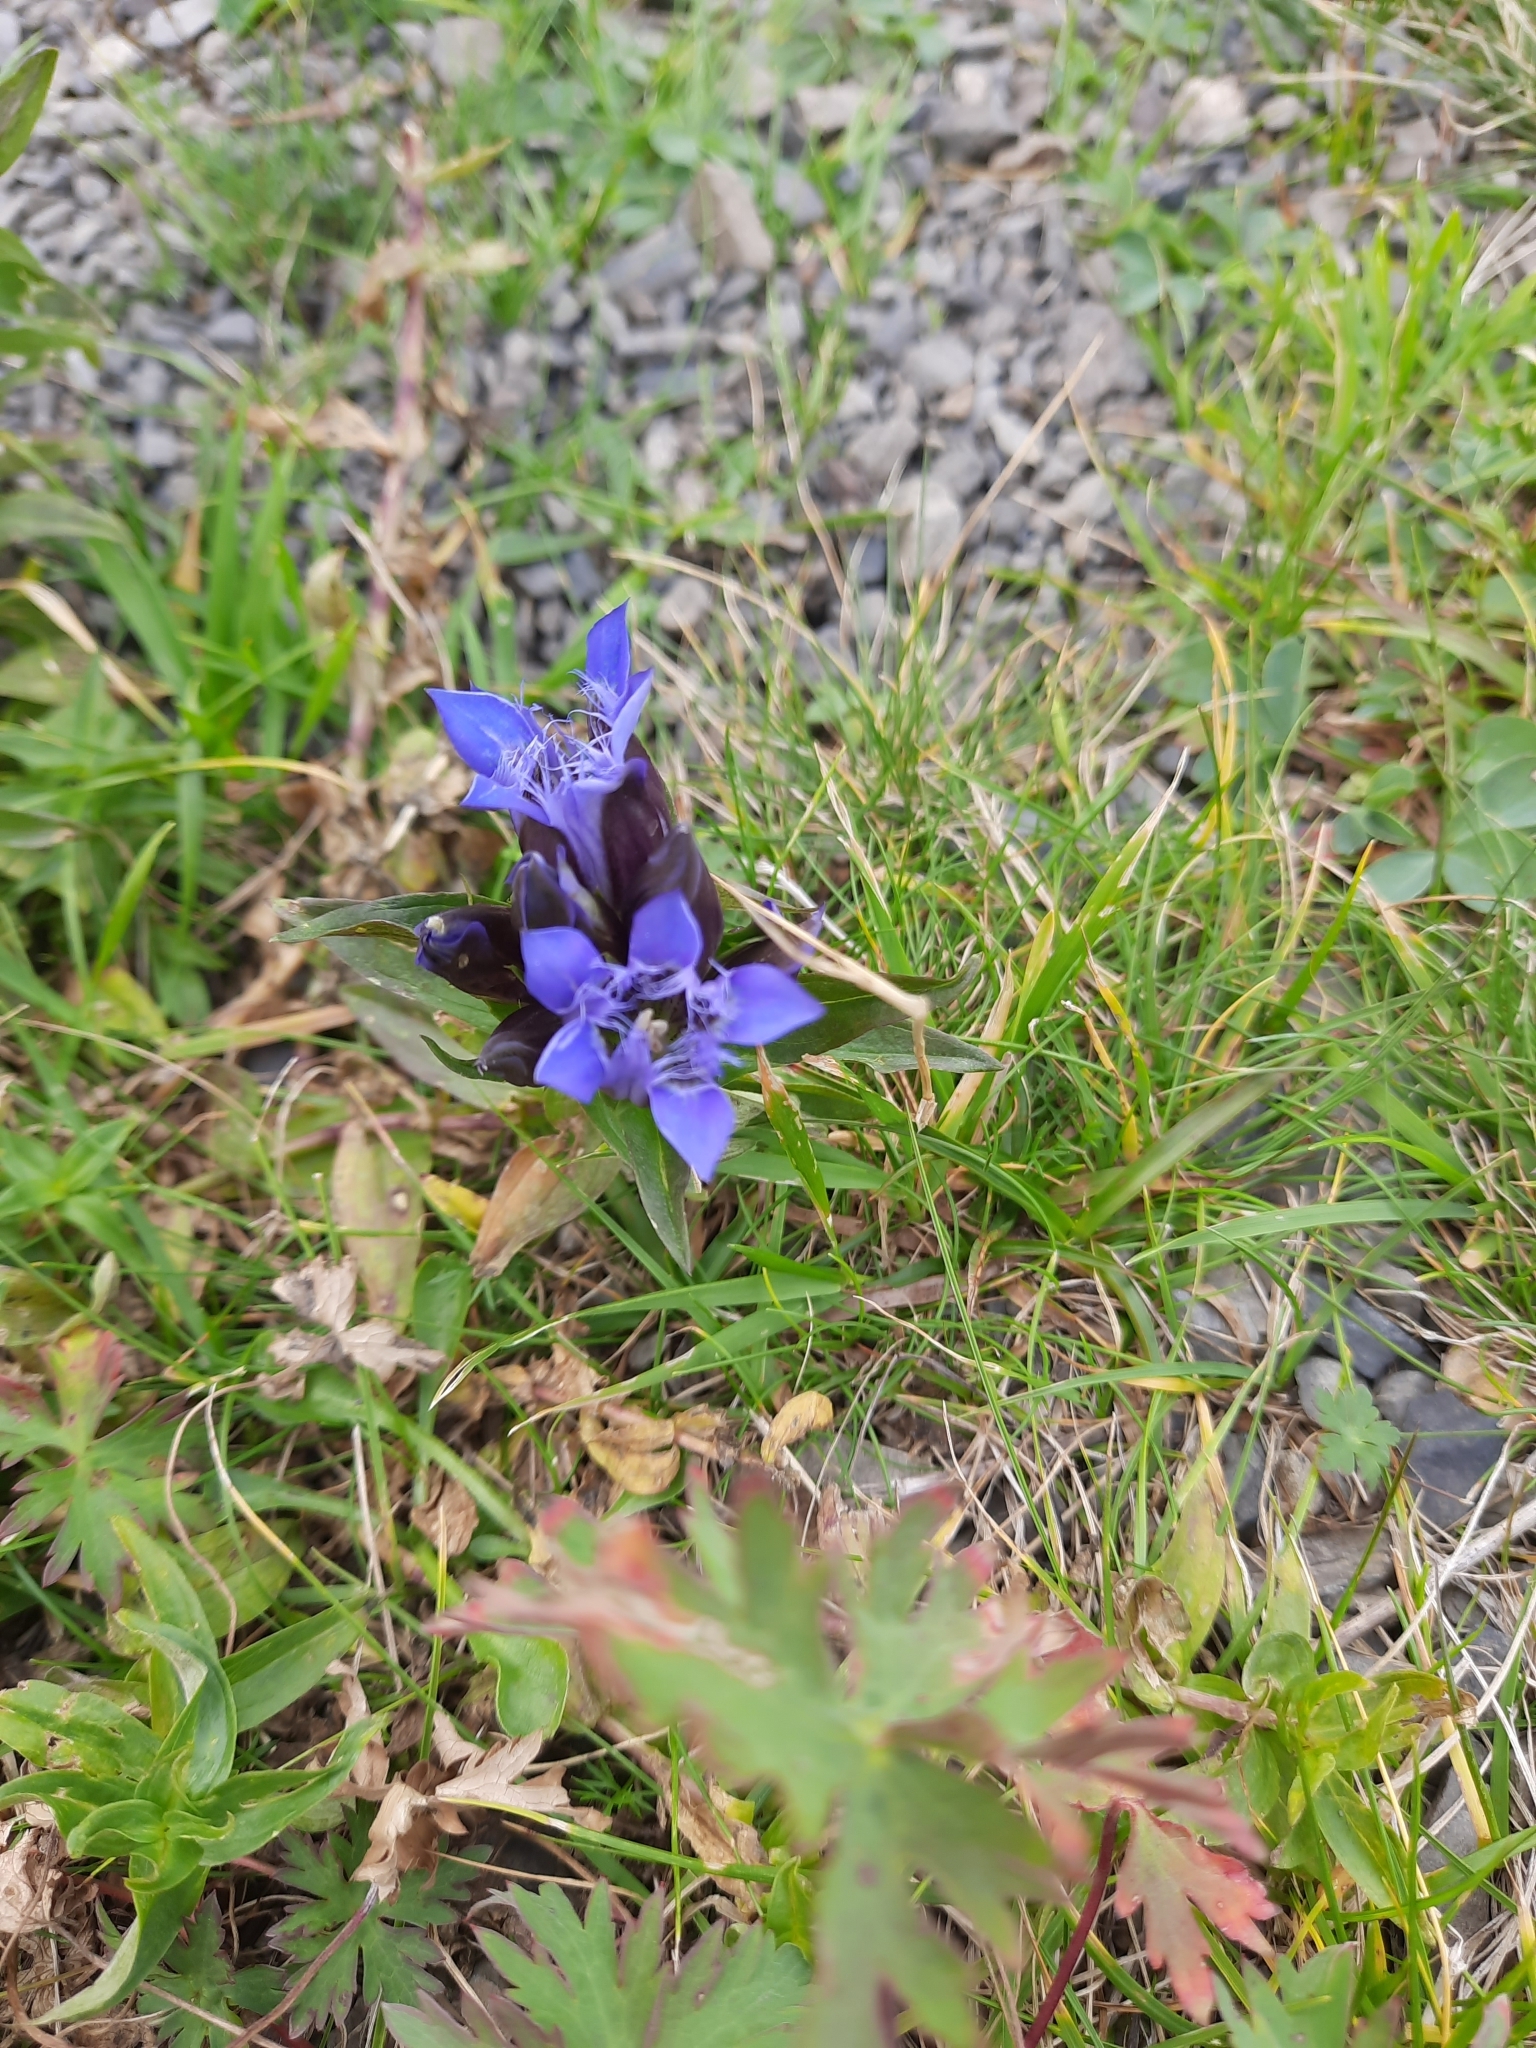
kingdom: Plantae
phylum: Tracheophyta
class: Magnoliopsida
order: Gentianales
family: Gentianaceae
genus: Gentiana
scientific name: Gentiana septemfida
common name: Crested gentian
